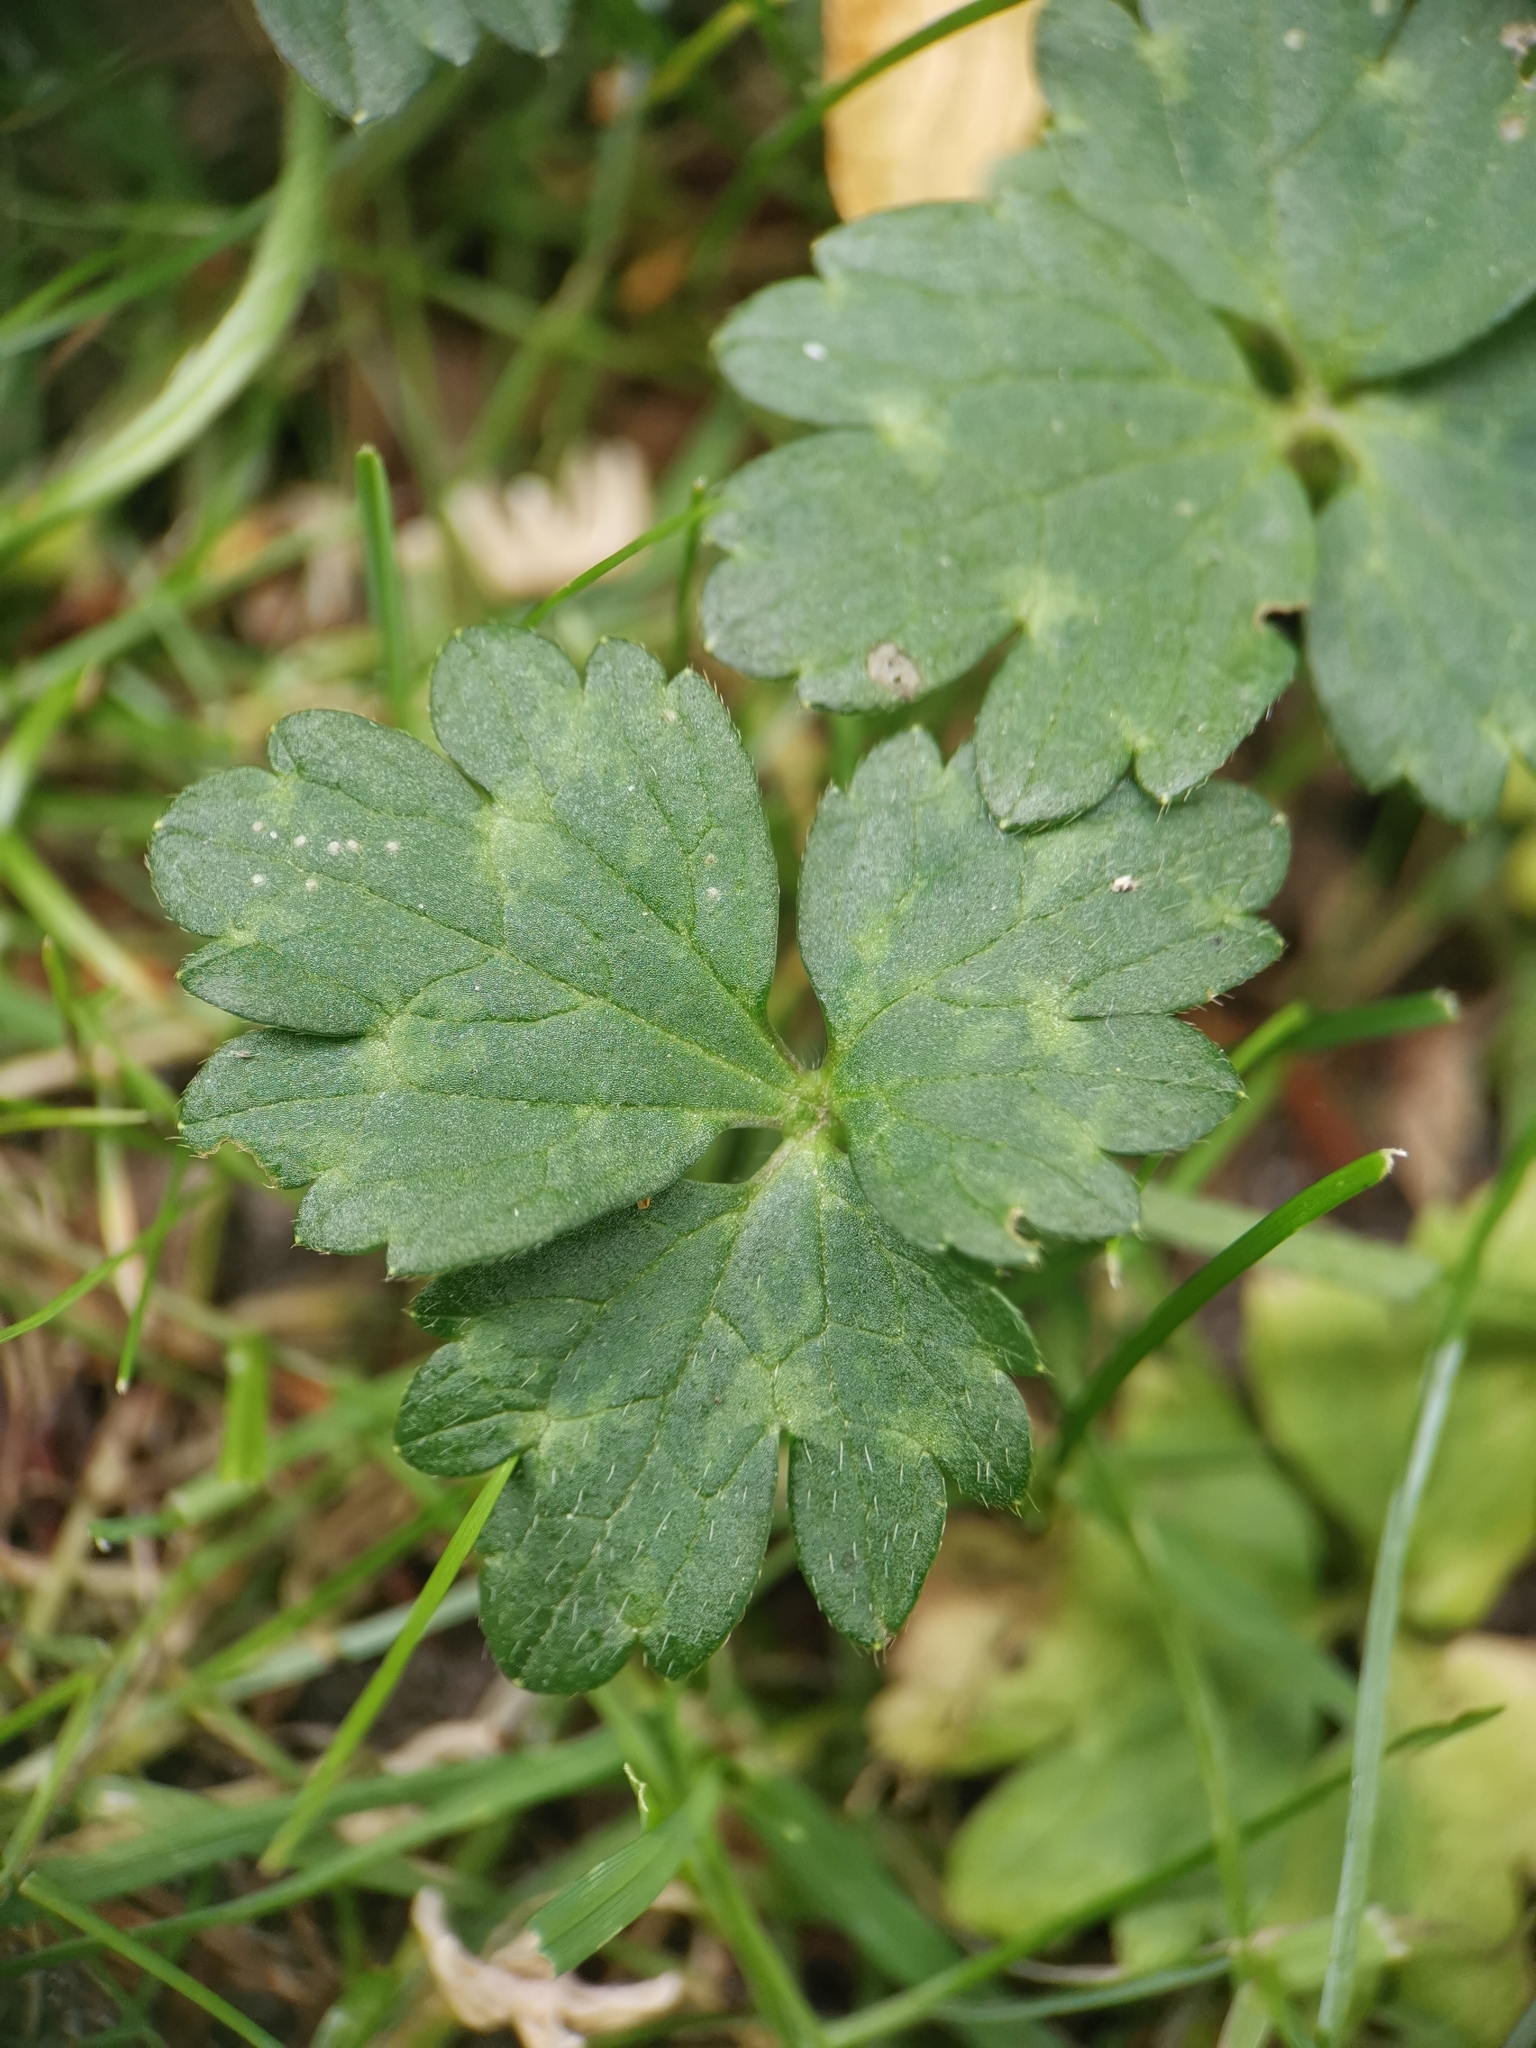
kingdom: Plantae
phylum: Tracheophyta
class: Magnoliopsida
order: Ranunculales
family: Ranunculaceae
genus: Ranunculus
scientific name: Ranunculus repens
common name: Creeping buttercup
